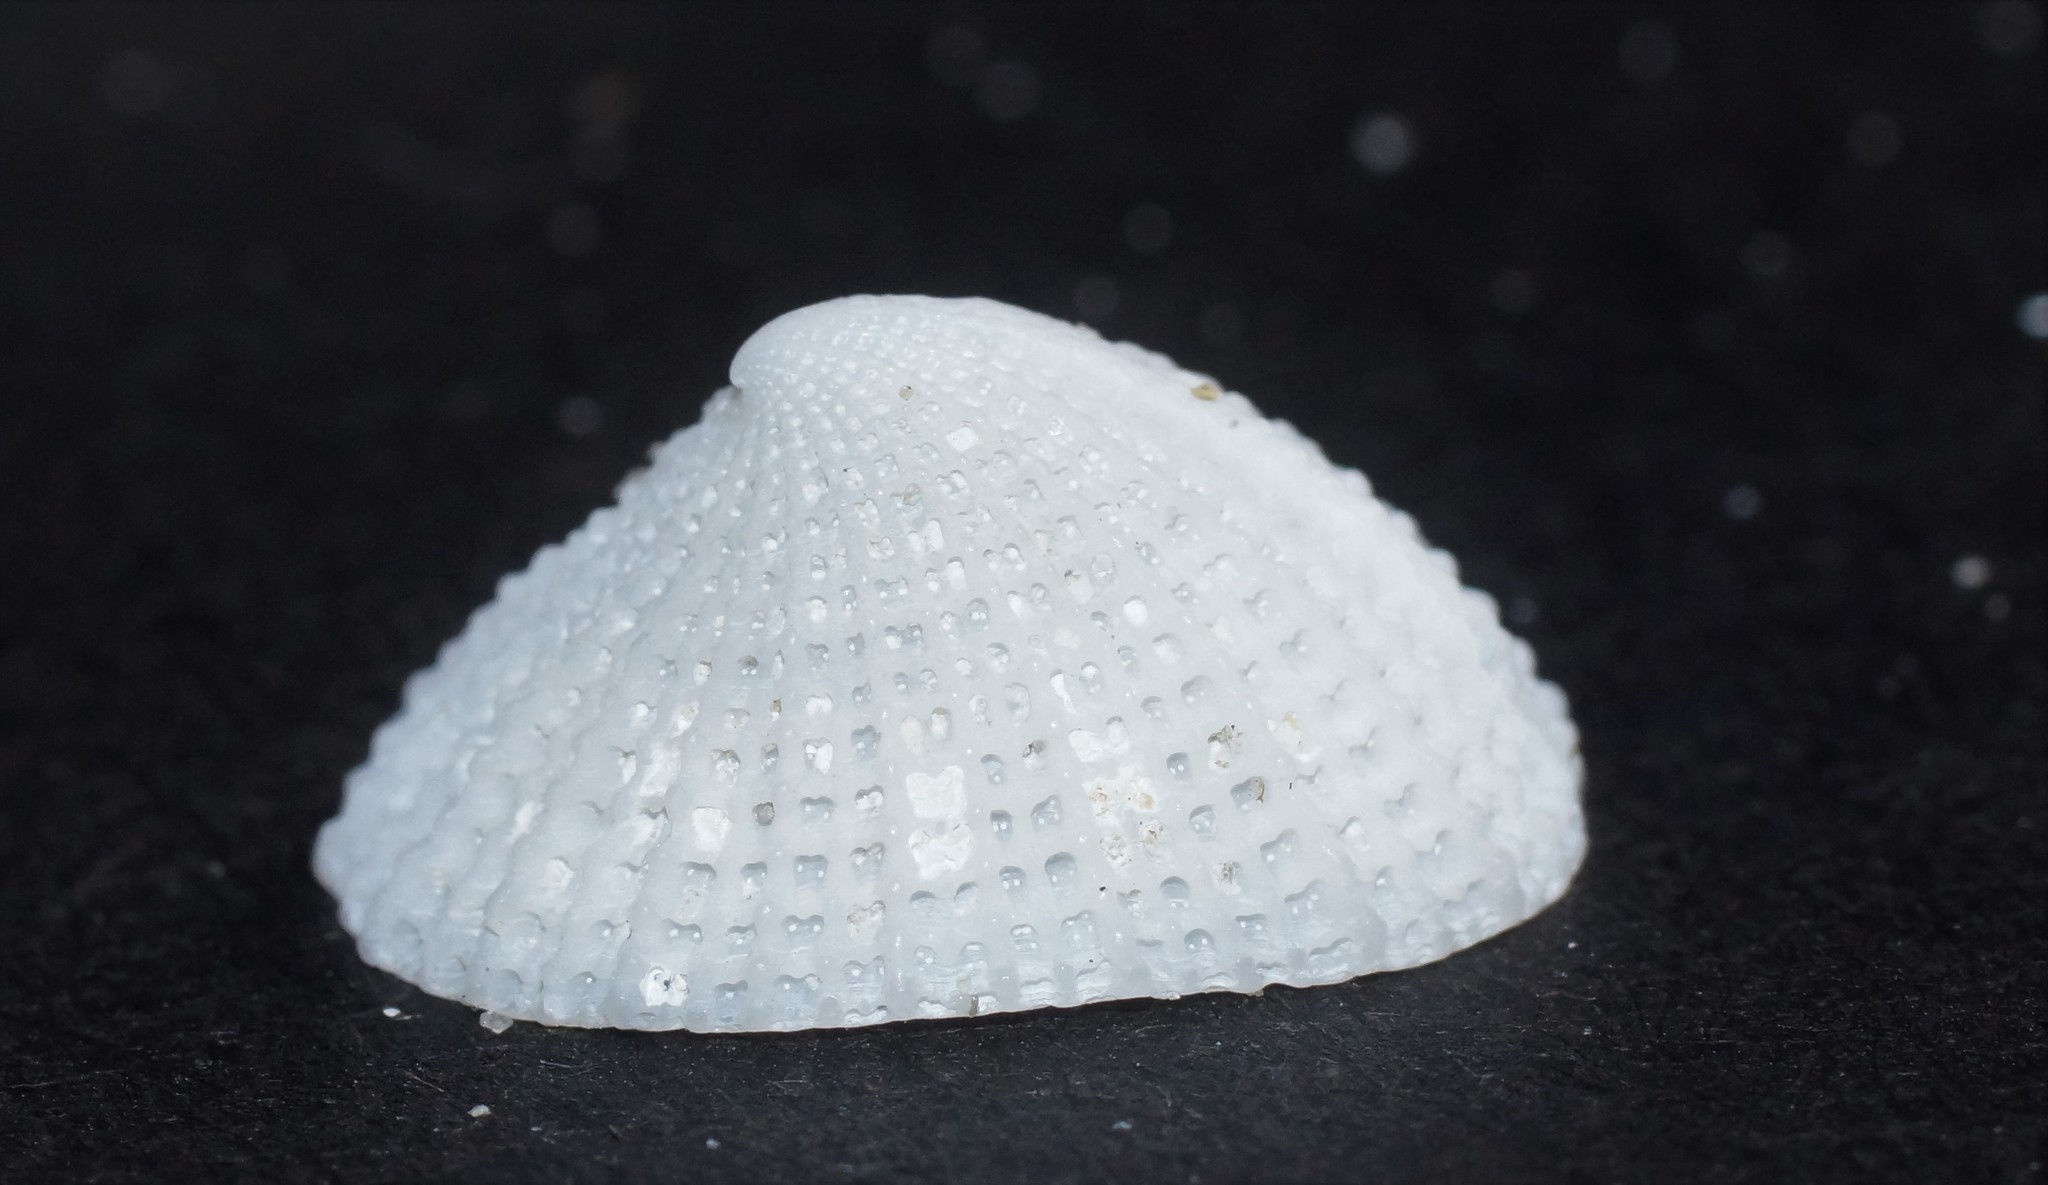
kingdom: Animalia
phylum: Mollusca
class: Gastropoda
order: Lepetellida
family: Fissurellidae
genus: Emarginula
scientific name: Emarginula candida
